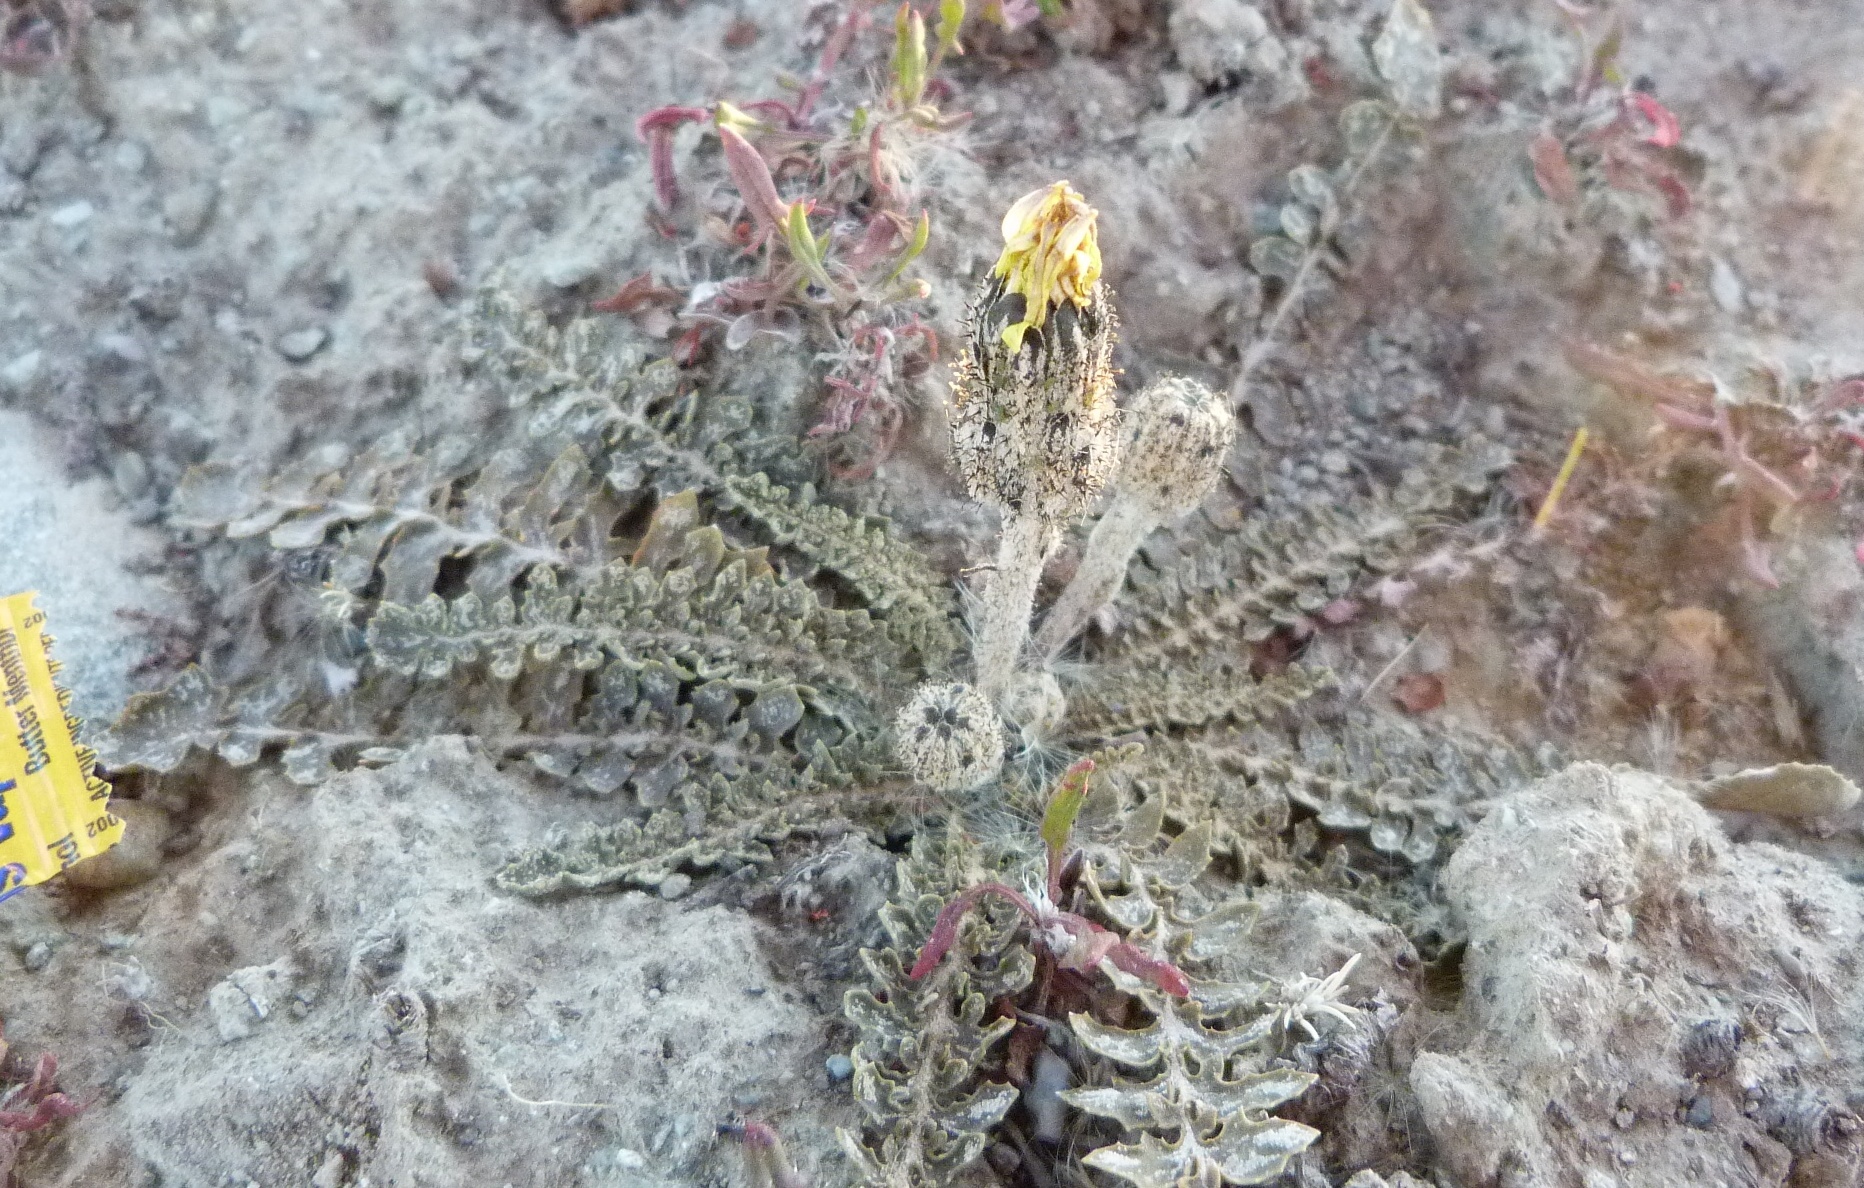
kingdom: Plantae
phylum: Tracheophyta
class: Magnoliopsida
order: Asterales
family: Asteraceae
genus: Sonchus
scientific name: Sonchus novae-zelandiae
